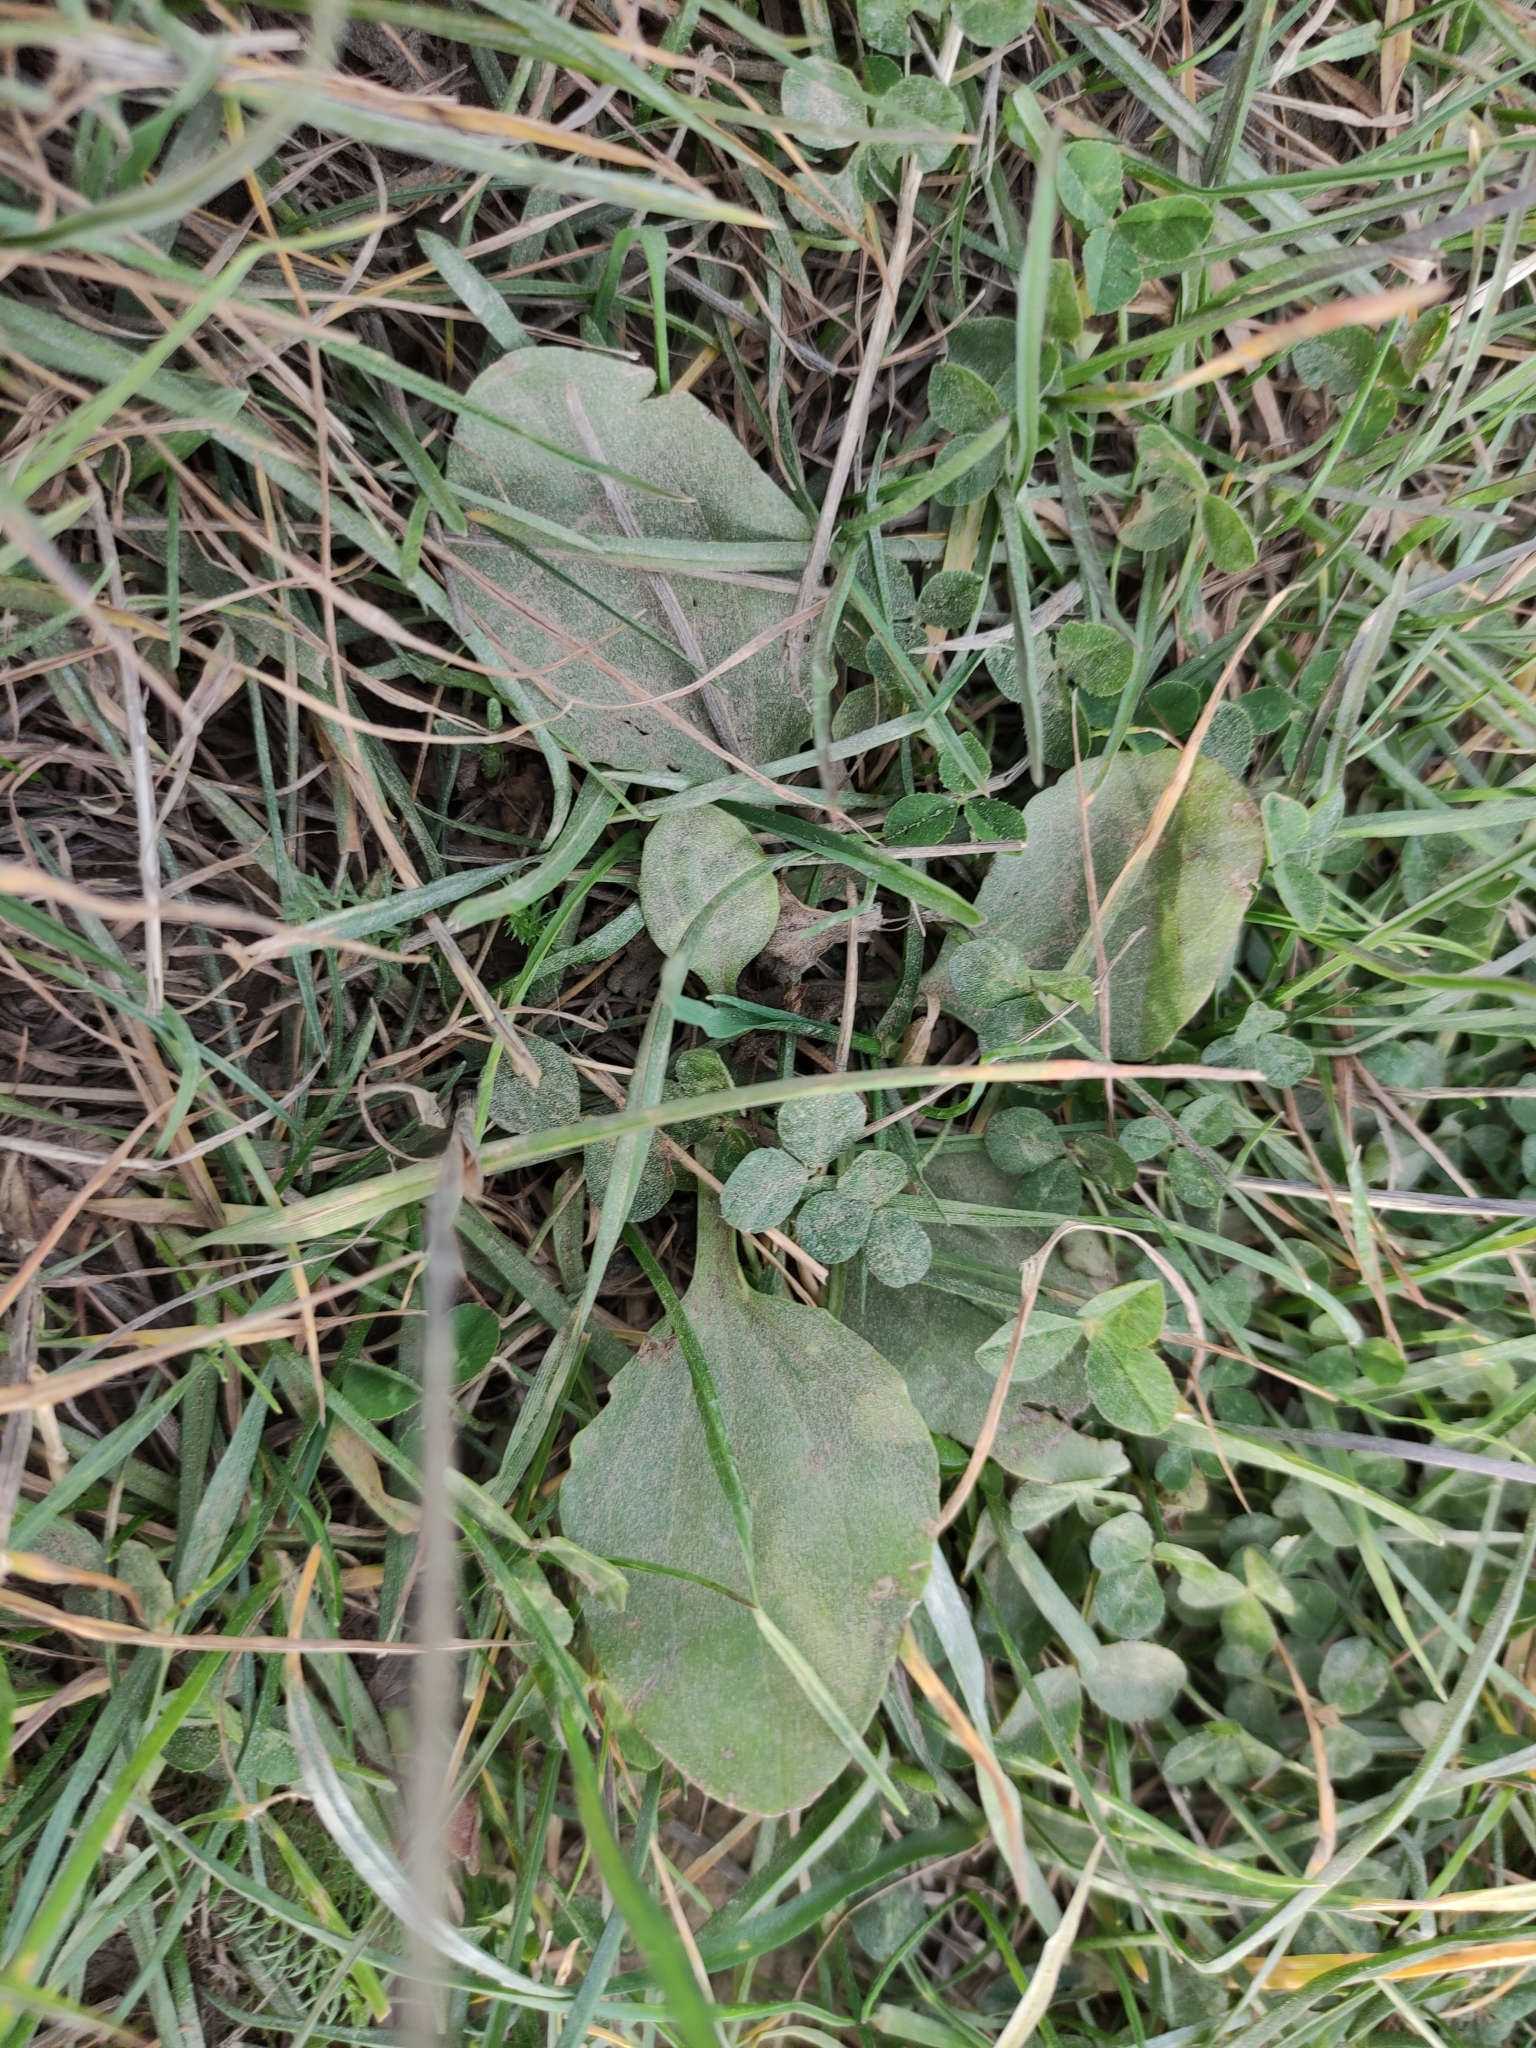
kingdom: Plantae
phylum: Tracheophyta
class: Magnoliopsida
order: Lamiales
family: Plantaginaceae
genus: Plantago
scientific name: Plantago major
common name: Common plantain
